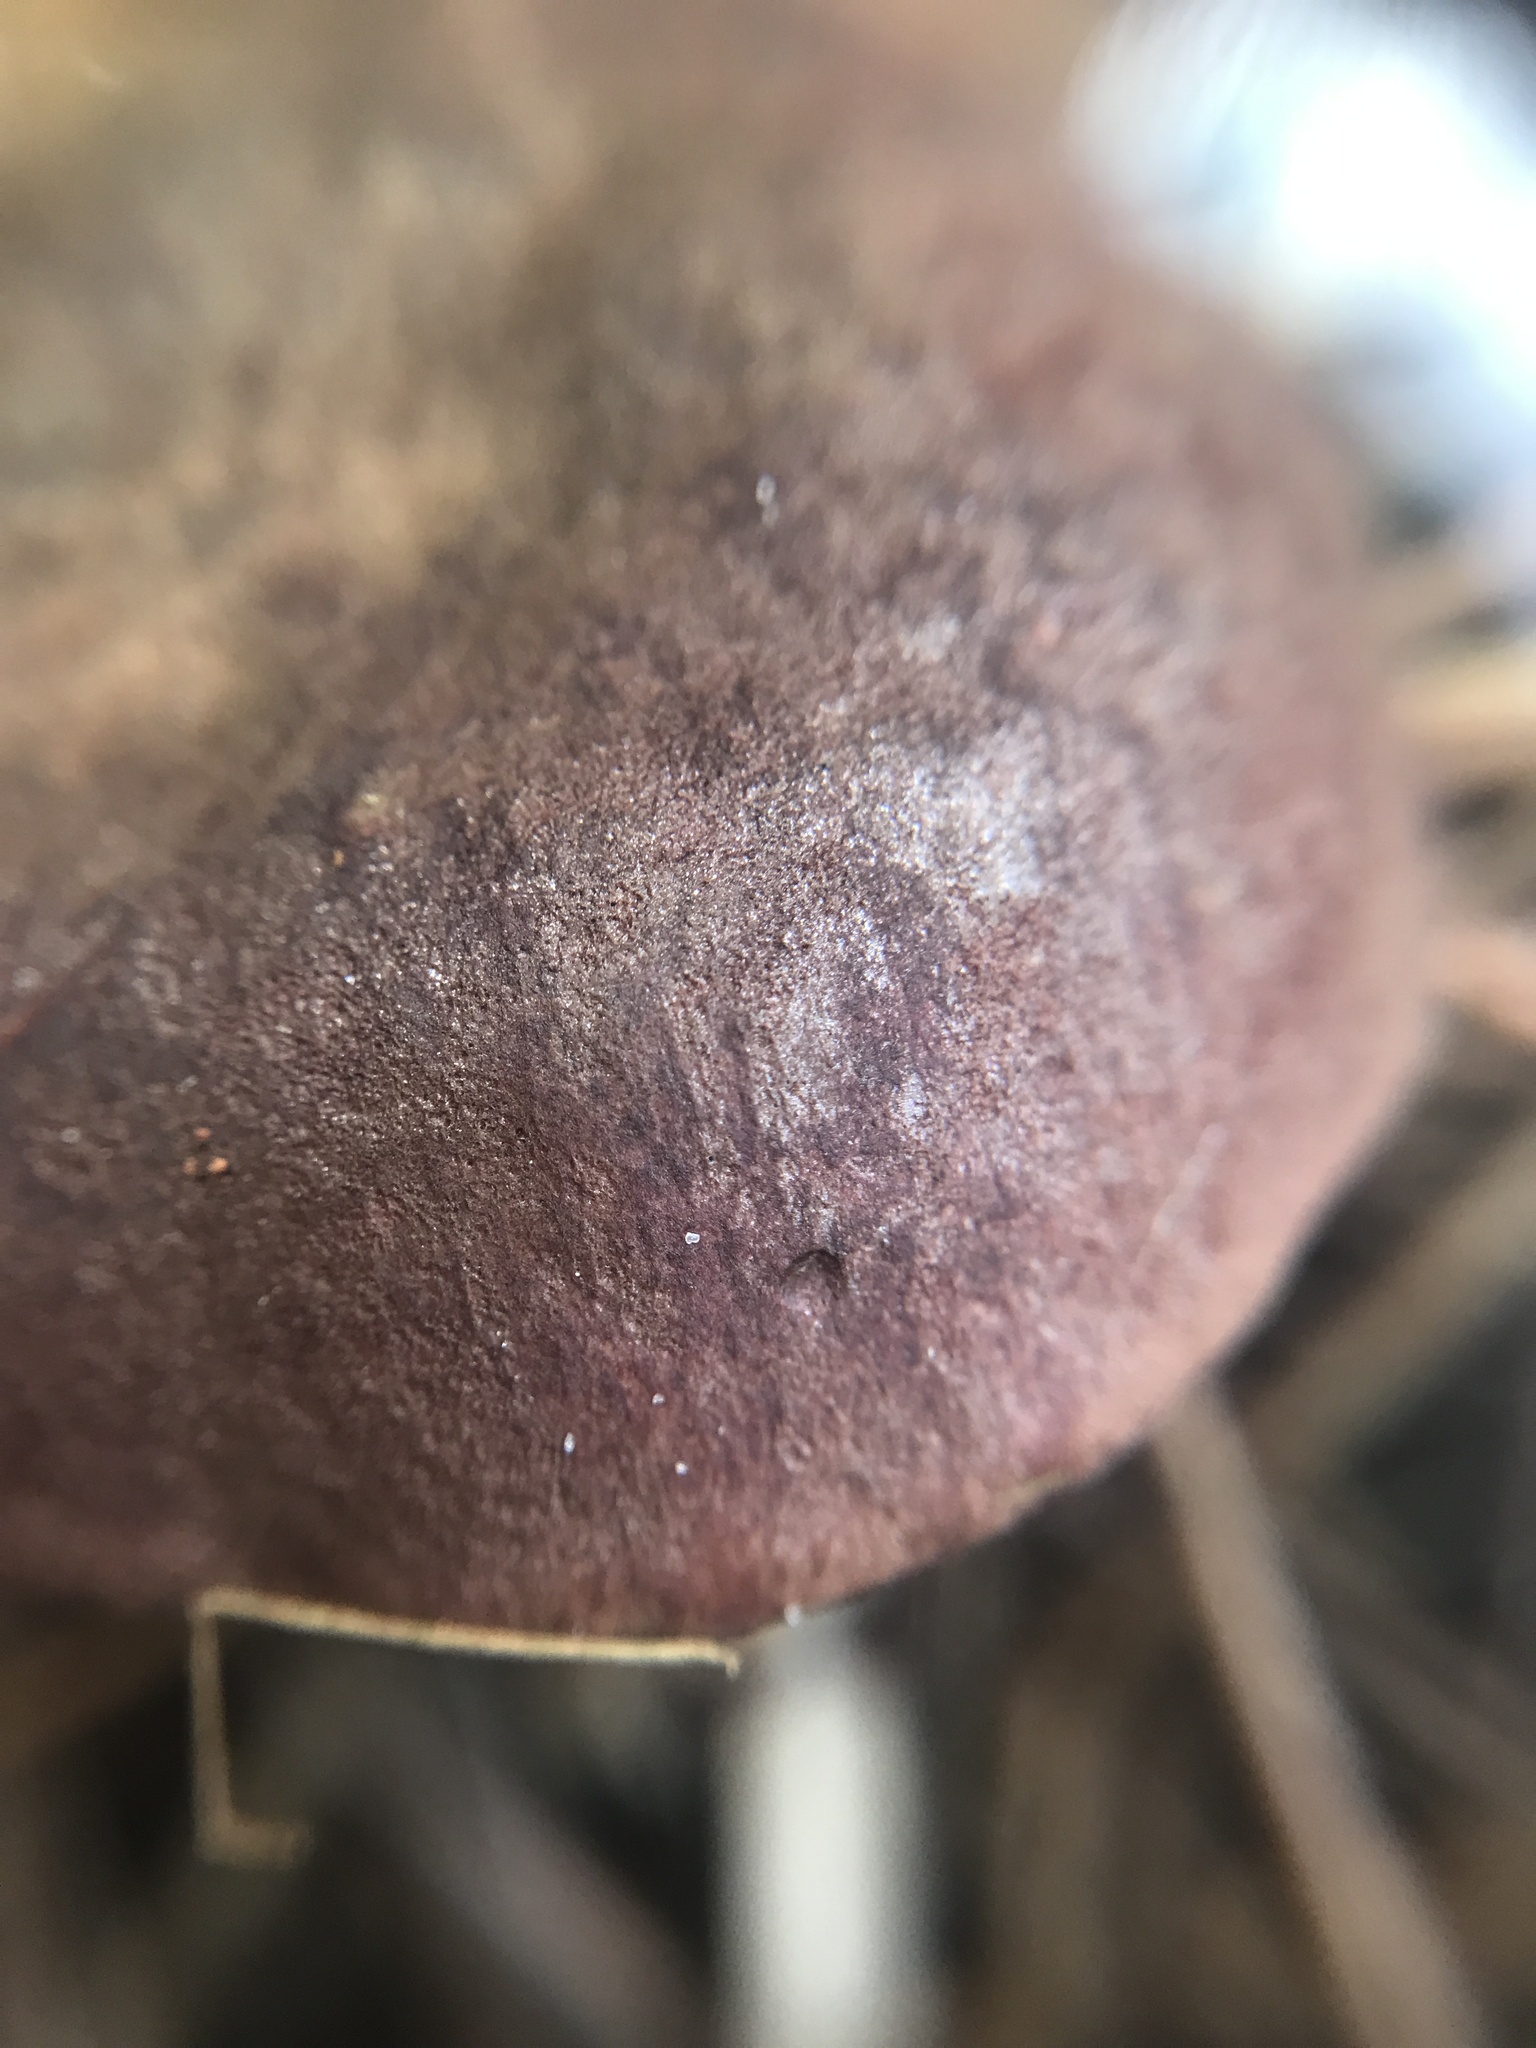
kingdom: Fungi
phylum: Basidiomycota
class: Agaricomycetes
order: Boletales
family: Boletaceae
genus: Imleria
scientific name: Imleria floridana
